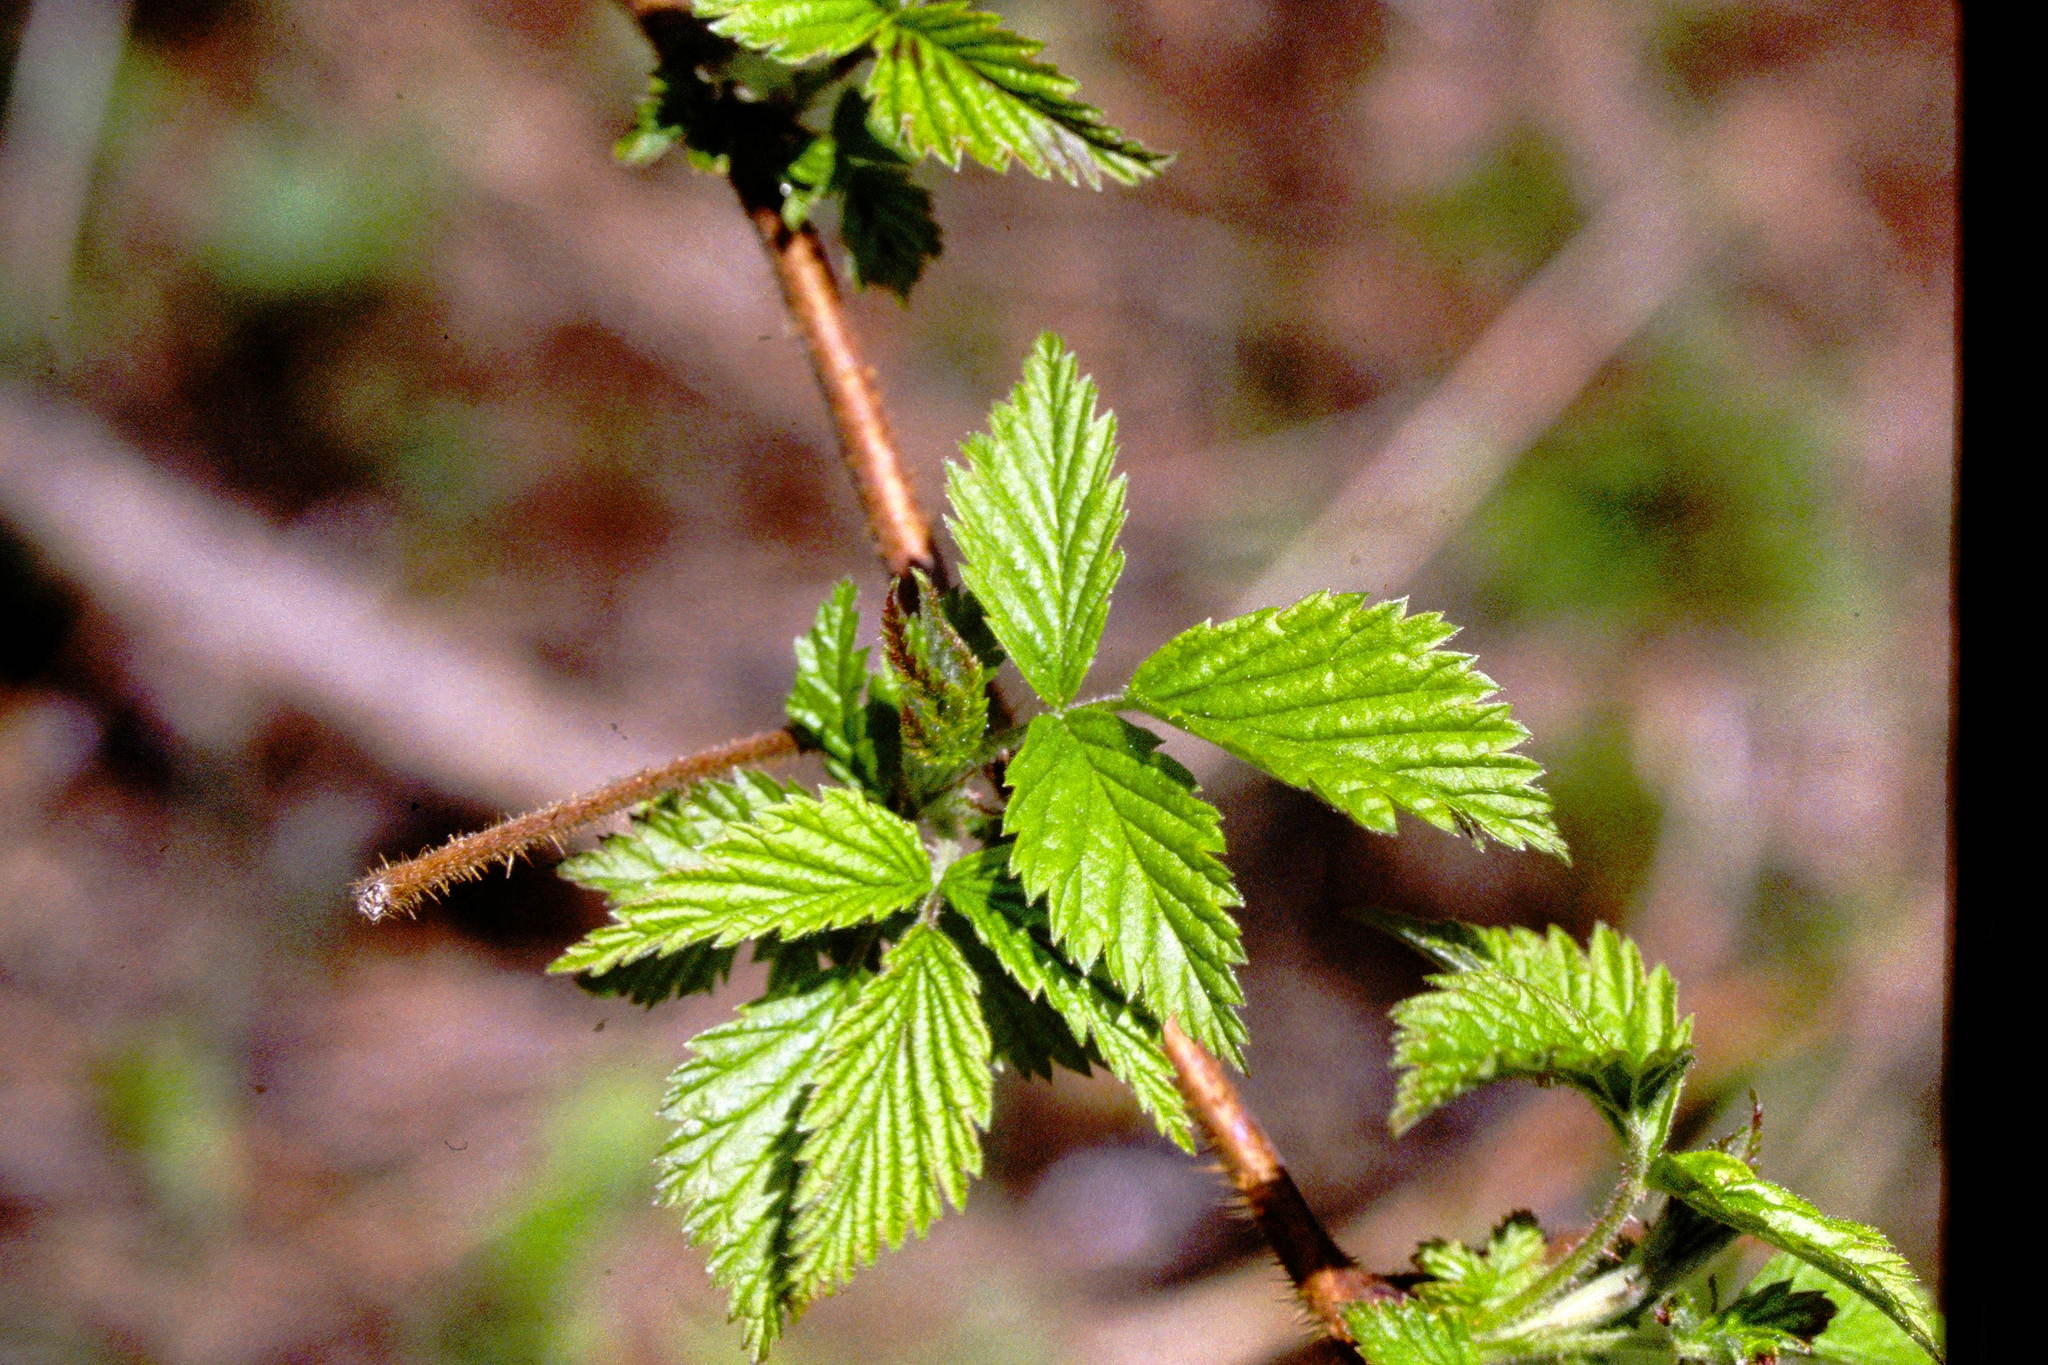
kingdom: Plantae
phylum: Tracheophyta
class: Magnoliopsida
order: Rosales
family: Rosaceae
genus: Rubus
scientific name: Rubus idaeus
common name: Raspberry
